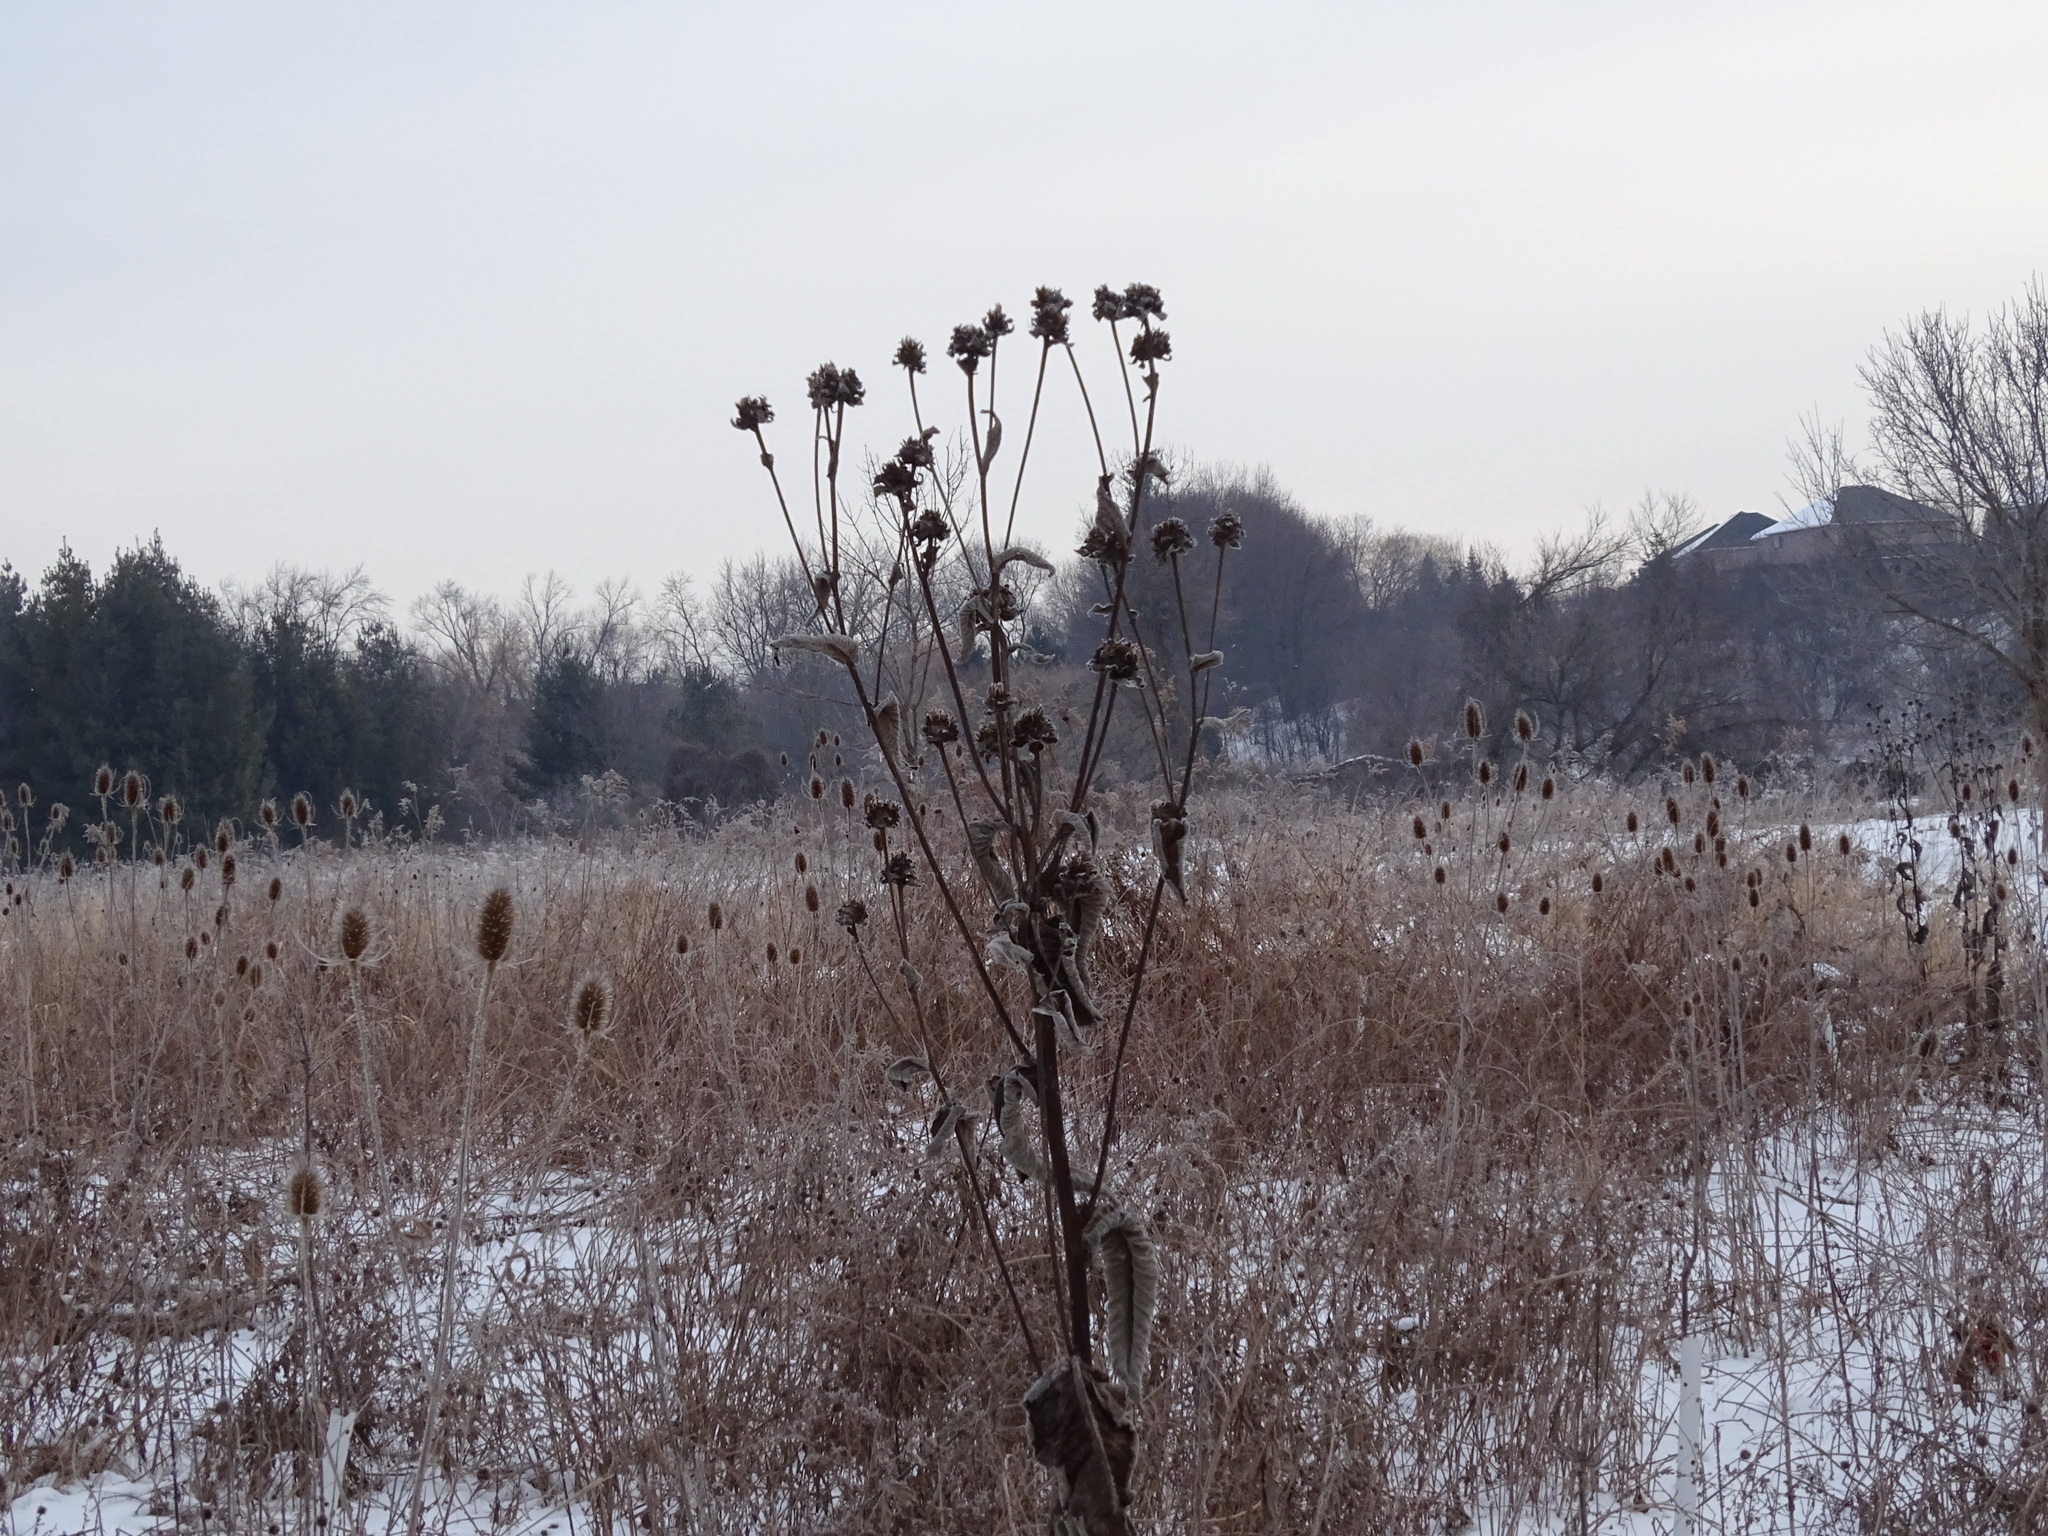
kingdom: Plantae
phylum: Tracheophyta
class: Magnoliopsida
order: Asterales
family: Asteraceae
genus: Inula
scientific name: Inula helenium
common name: Elecampane
